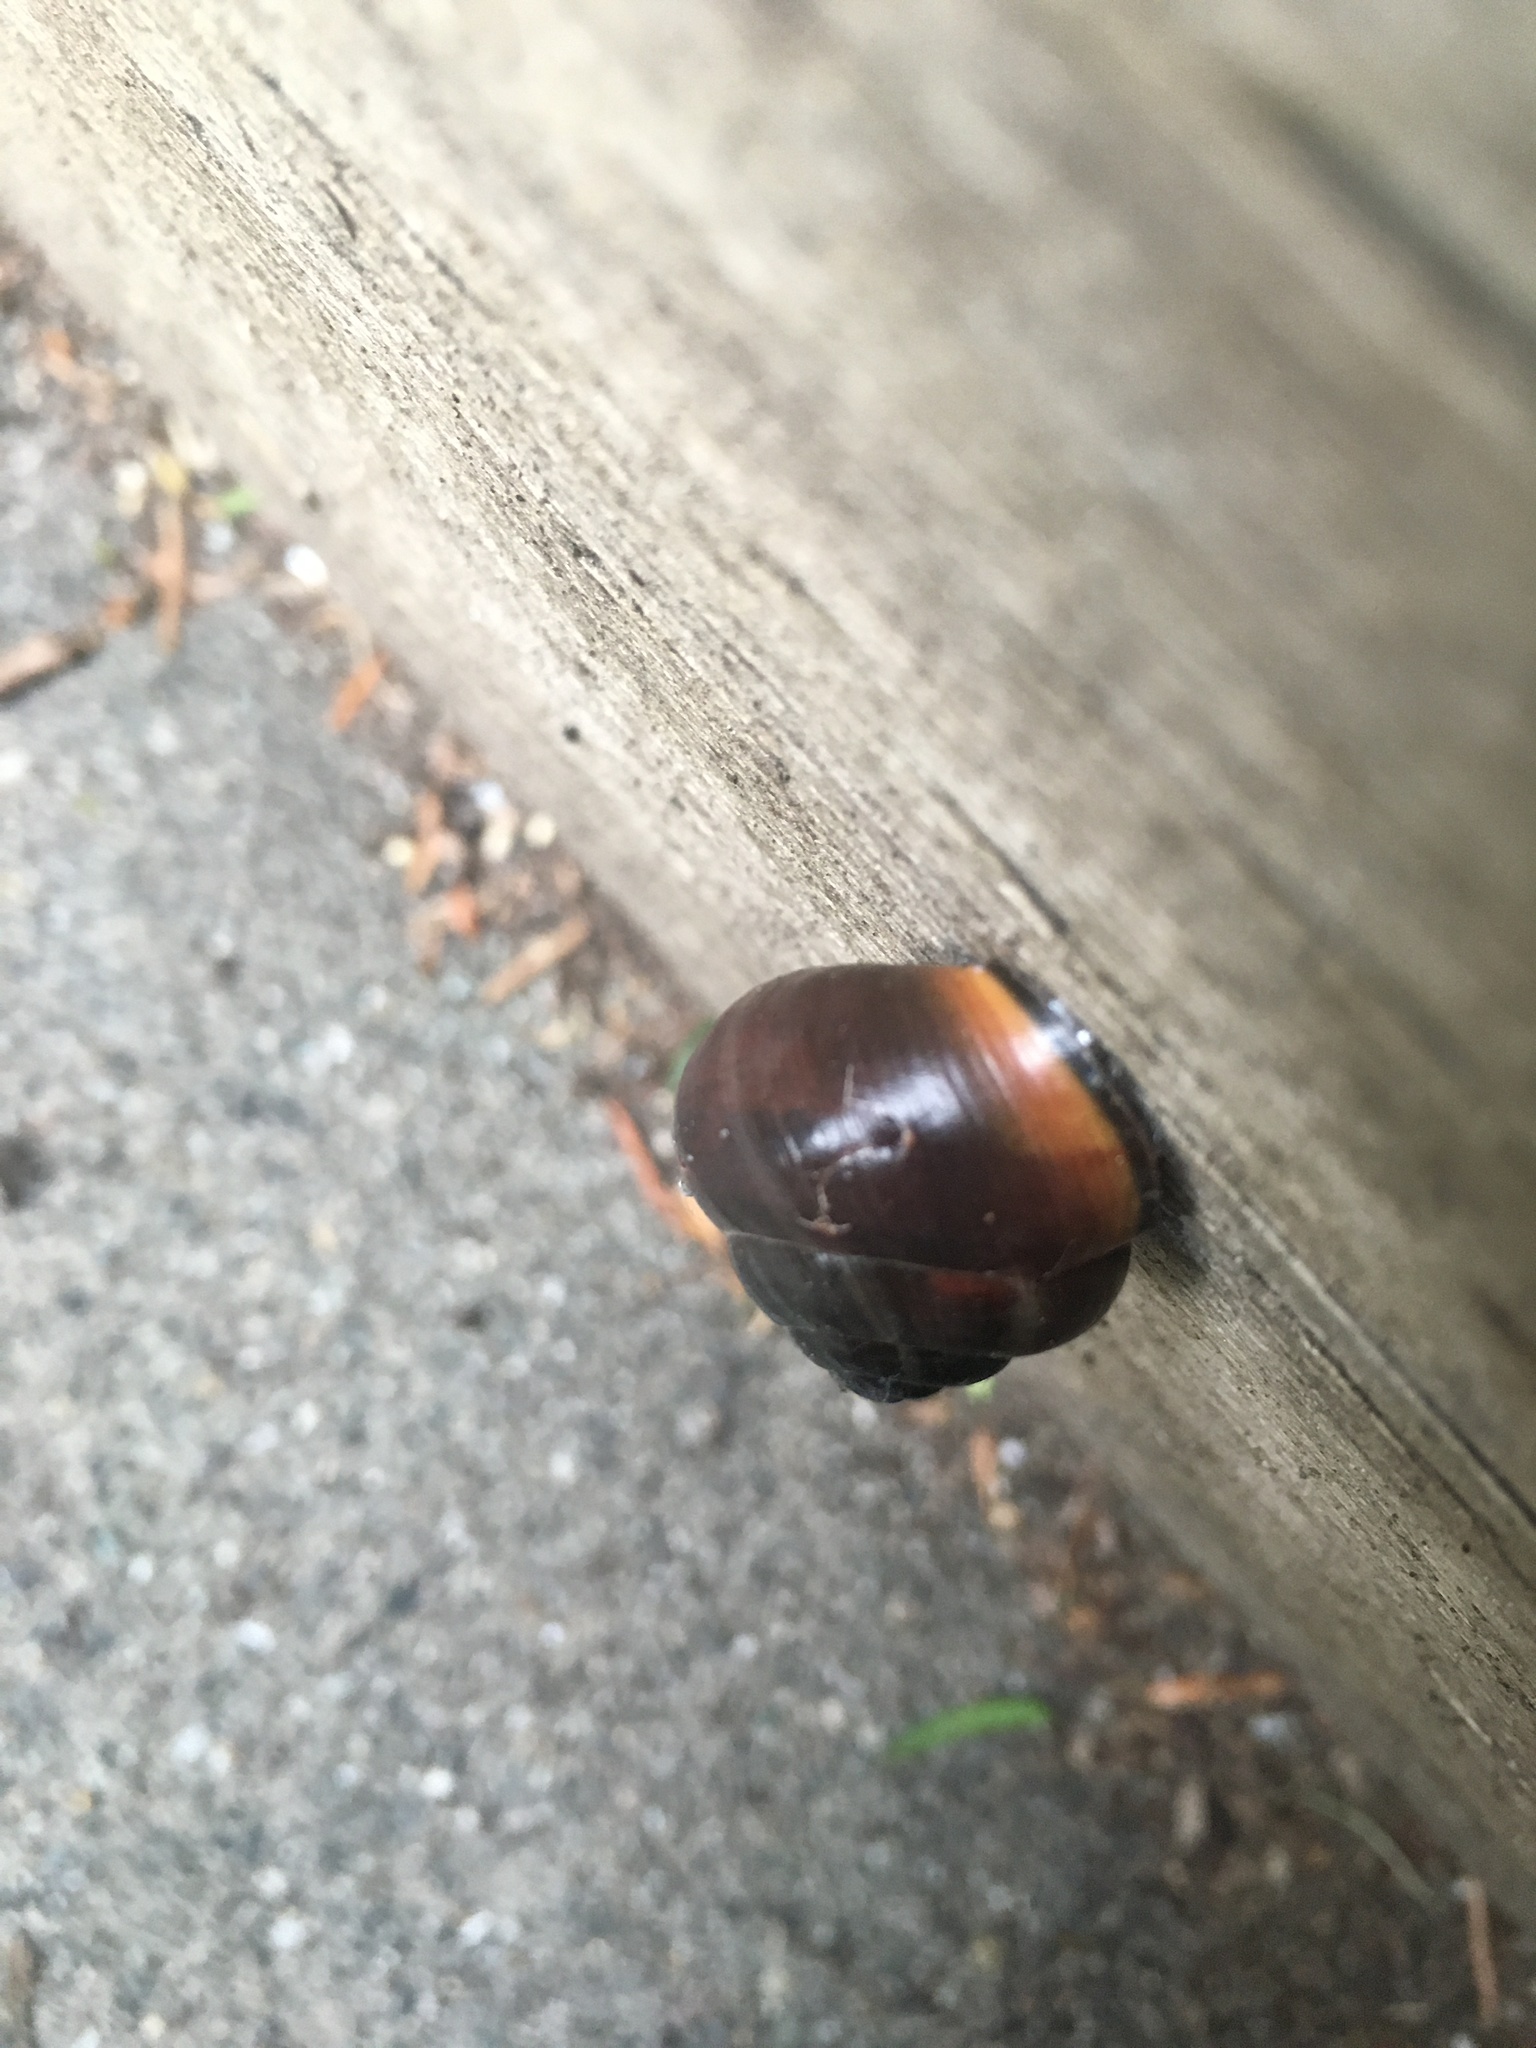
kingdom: Animalia
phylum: Mollusca
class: Gastropoda
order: Stylommatophora
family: Helicidae
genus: Cepaea
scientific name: Cepaea nemoralis
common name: Grovesnail
